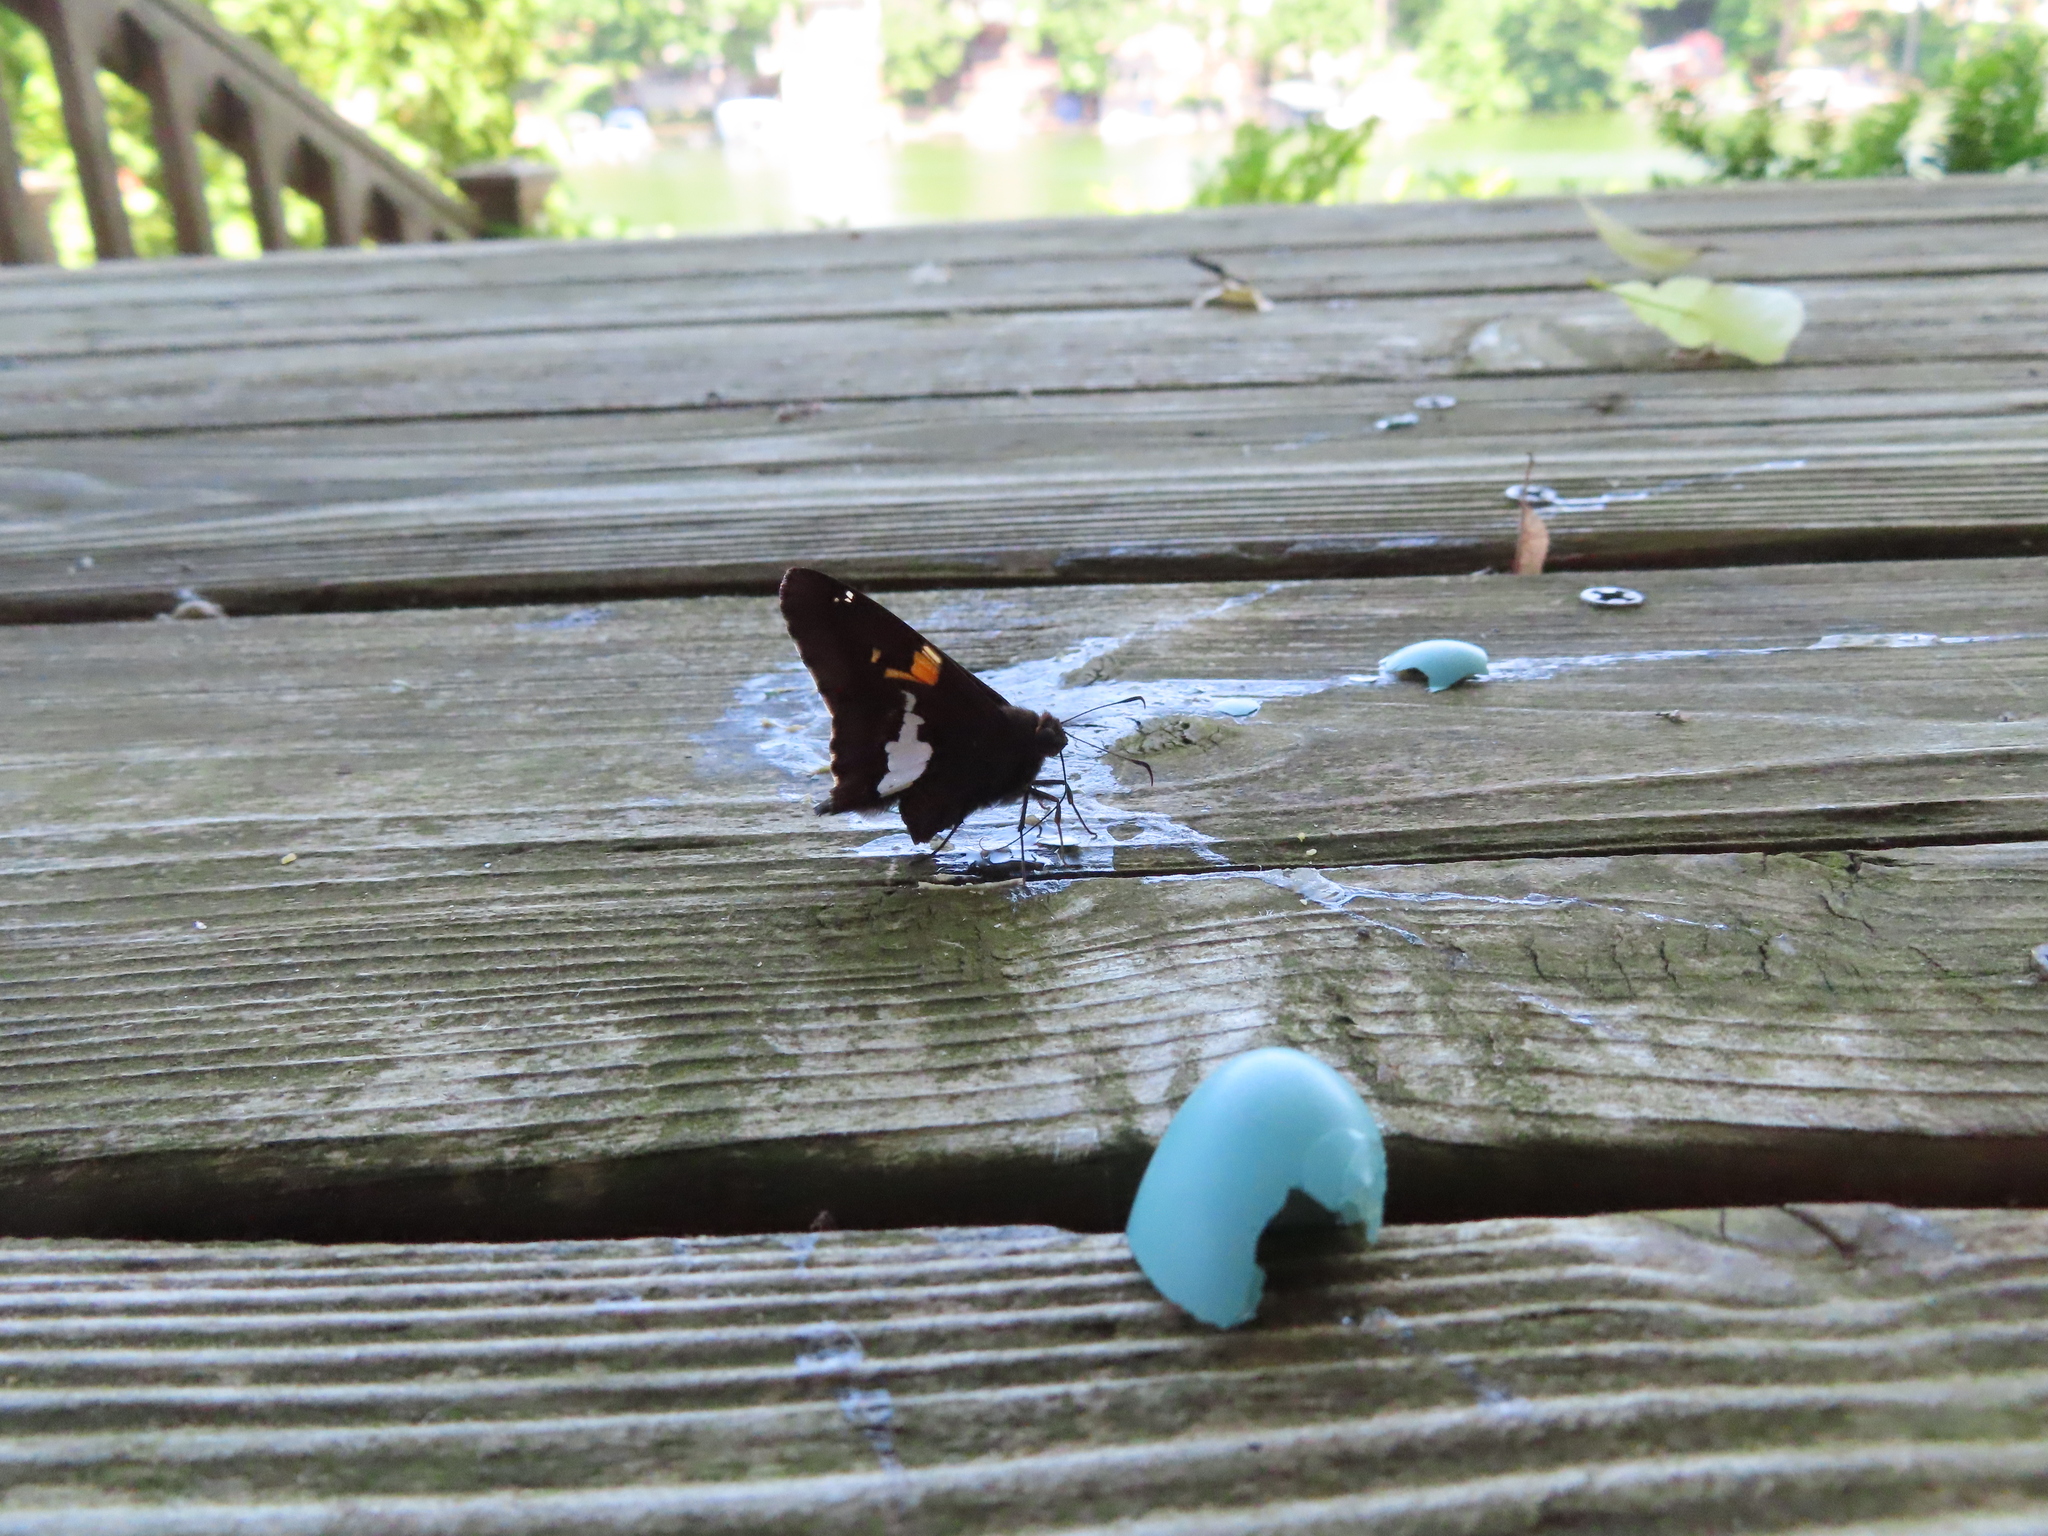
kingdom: Animalia
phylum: Arthropoda
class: Insecta
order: Lepidoptera
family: Hesperiidae
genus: Epargyreus
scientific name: Epargyreus clarus
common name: Silver-spotted skipper
